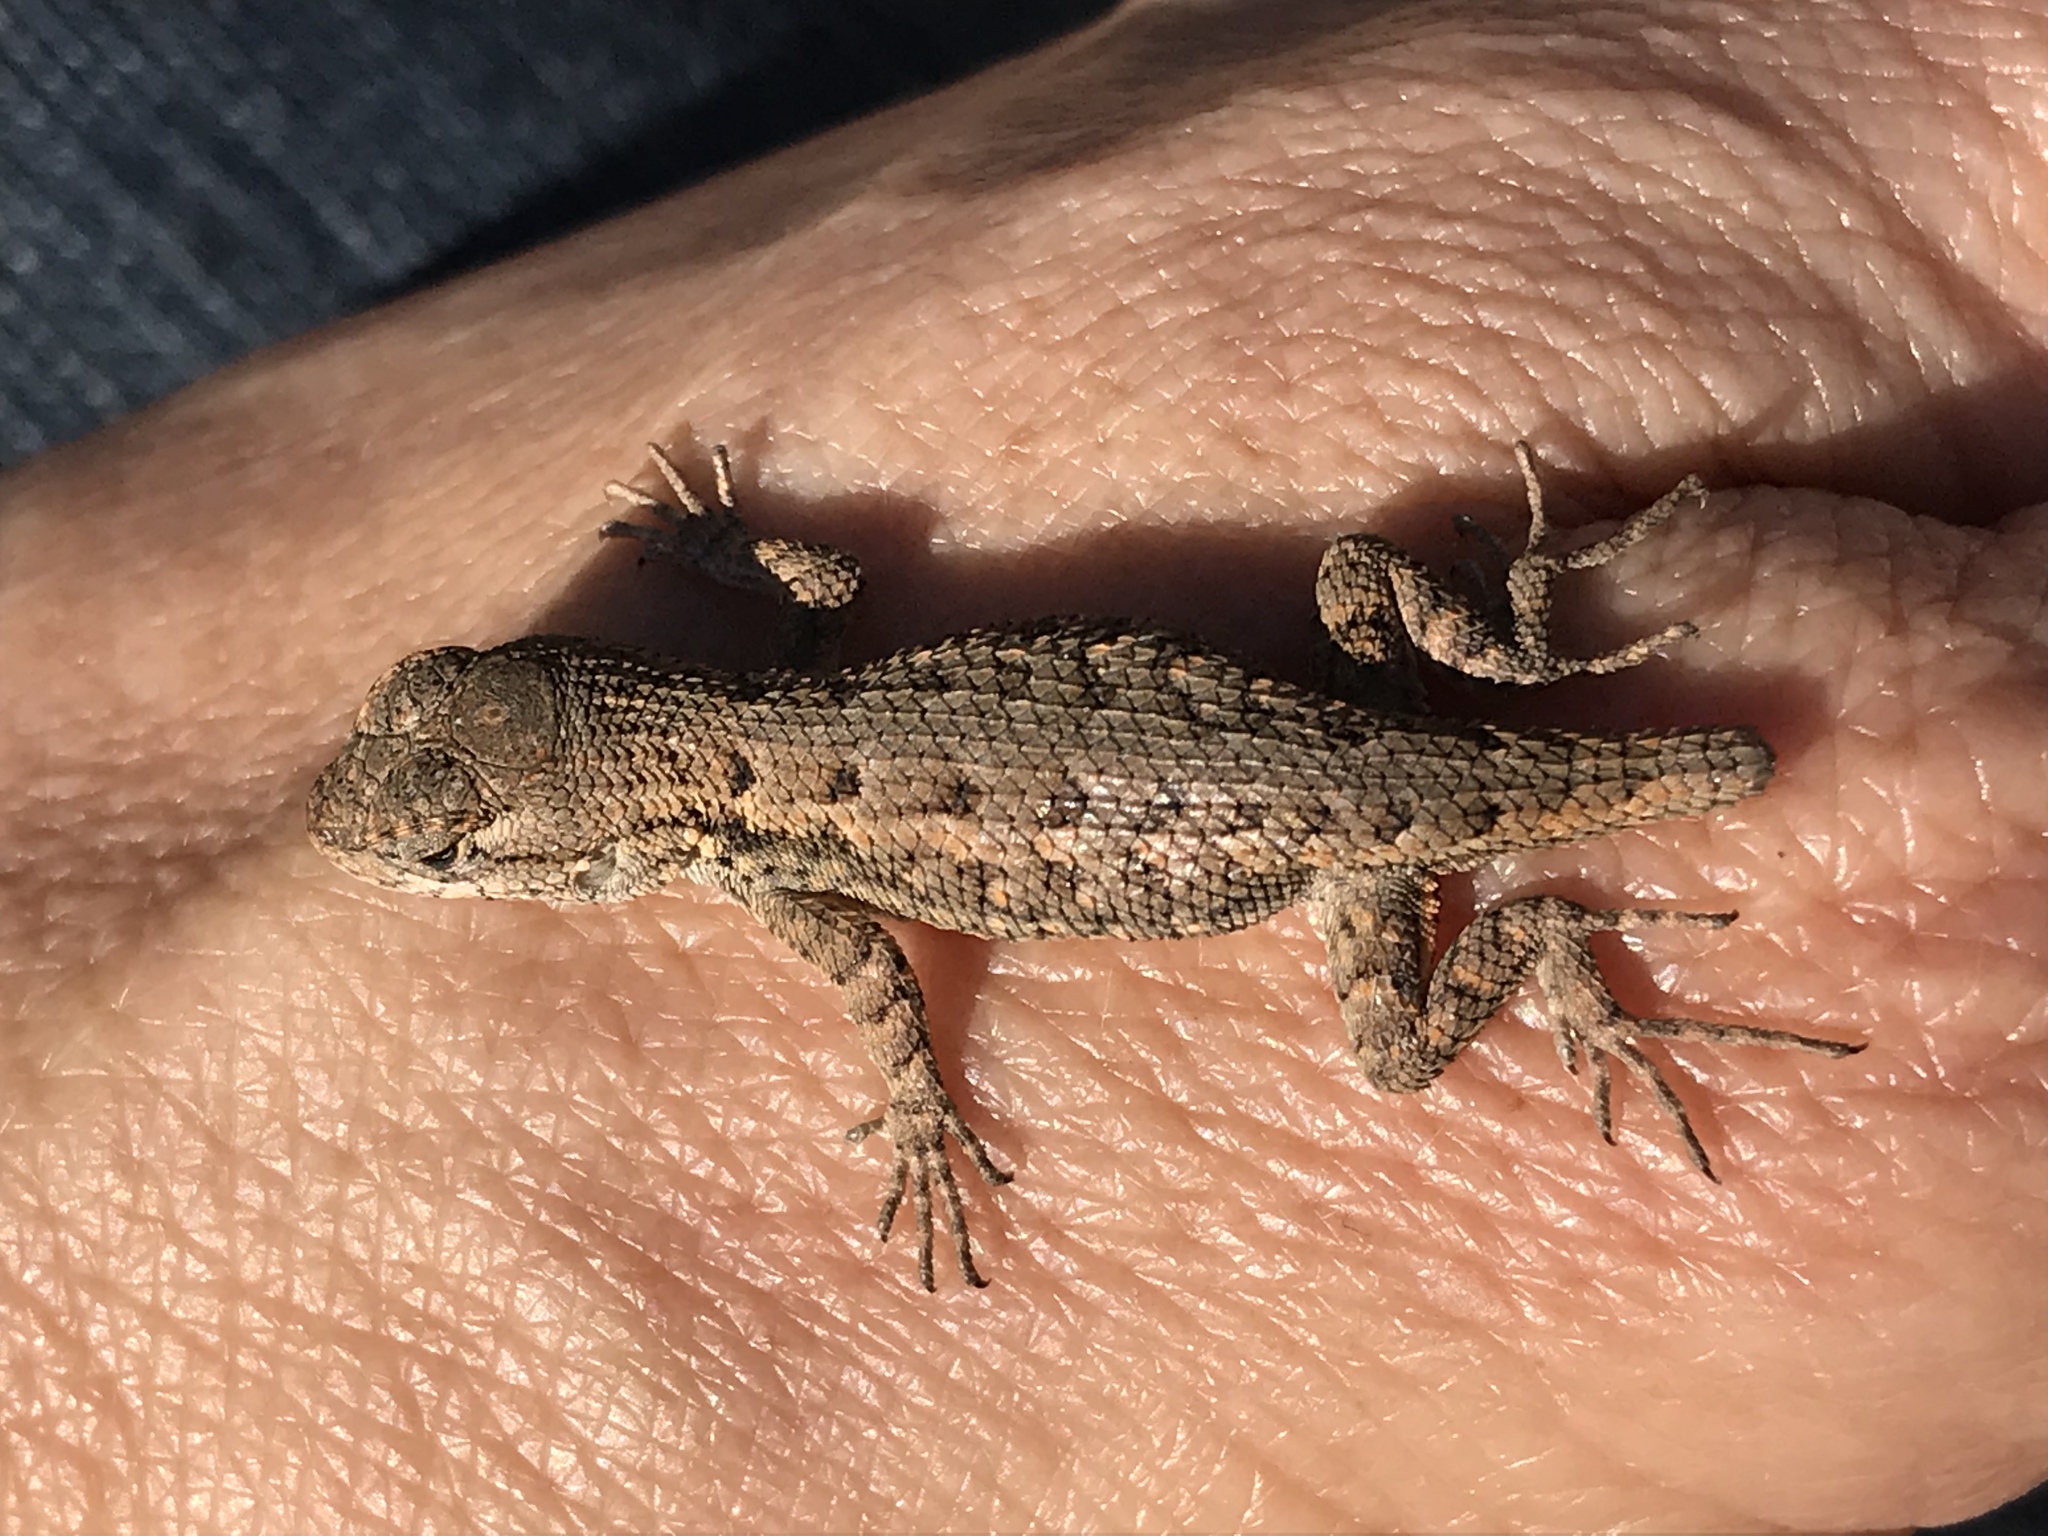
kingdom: Animalia
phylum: Chordata
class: Squamata
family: Phrynosomatidae
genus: Sceloporus
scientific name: Sceloporus occidentalis
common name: Western fence lizard
